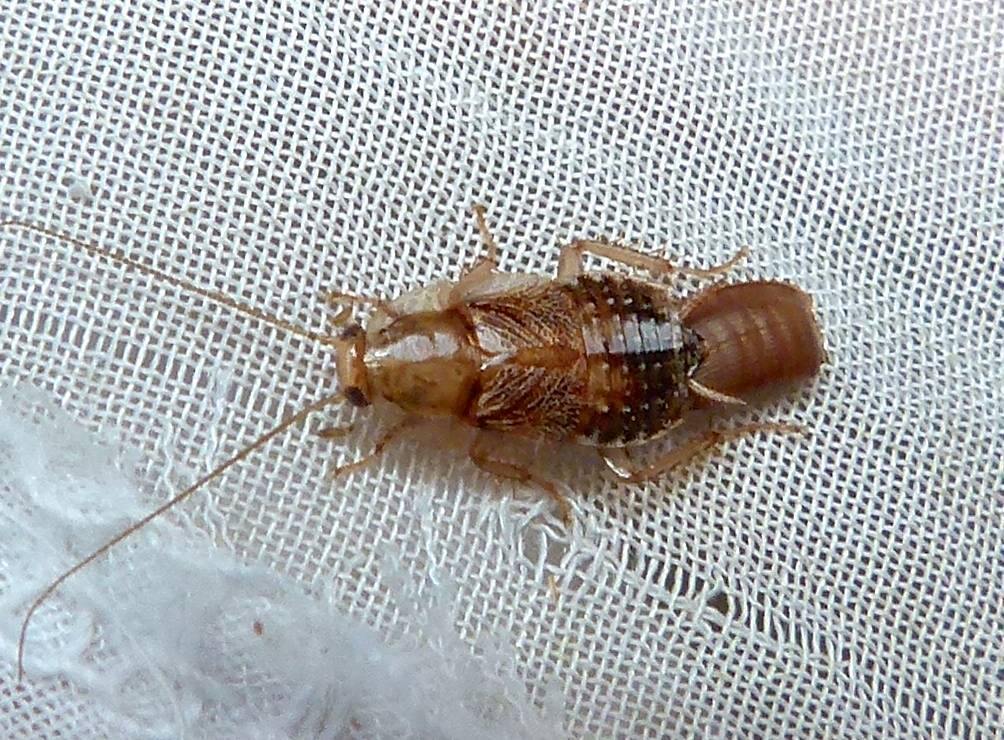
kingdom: Animalia
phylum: Arthropoda
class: Insecta
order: Blattodea
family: Ectobiidae
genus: Parellipsidion
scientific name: Parellipsidion pachycercum
